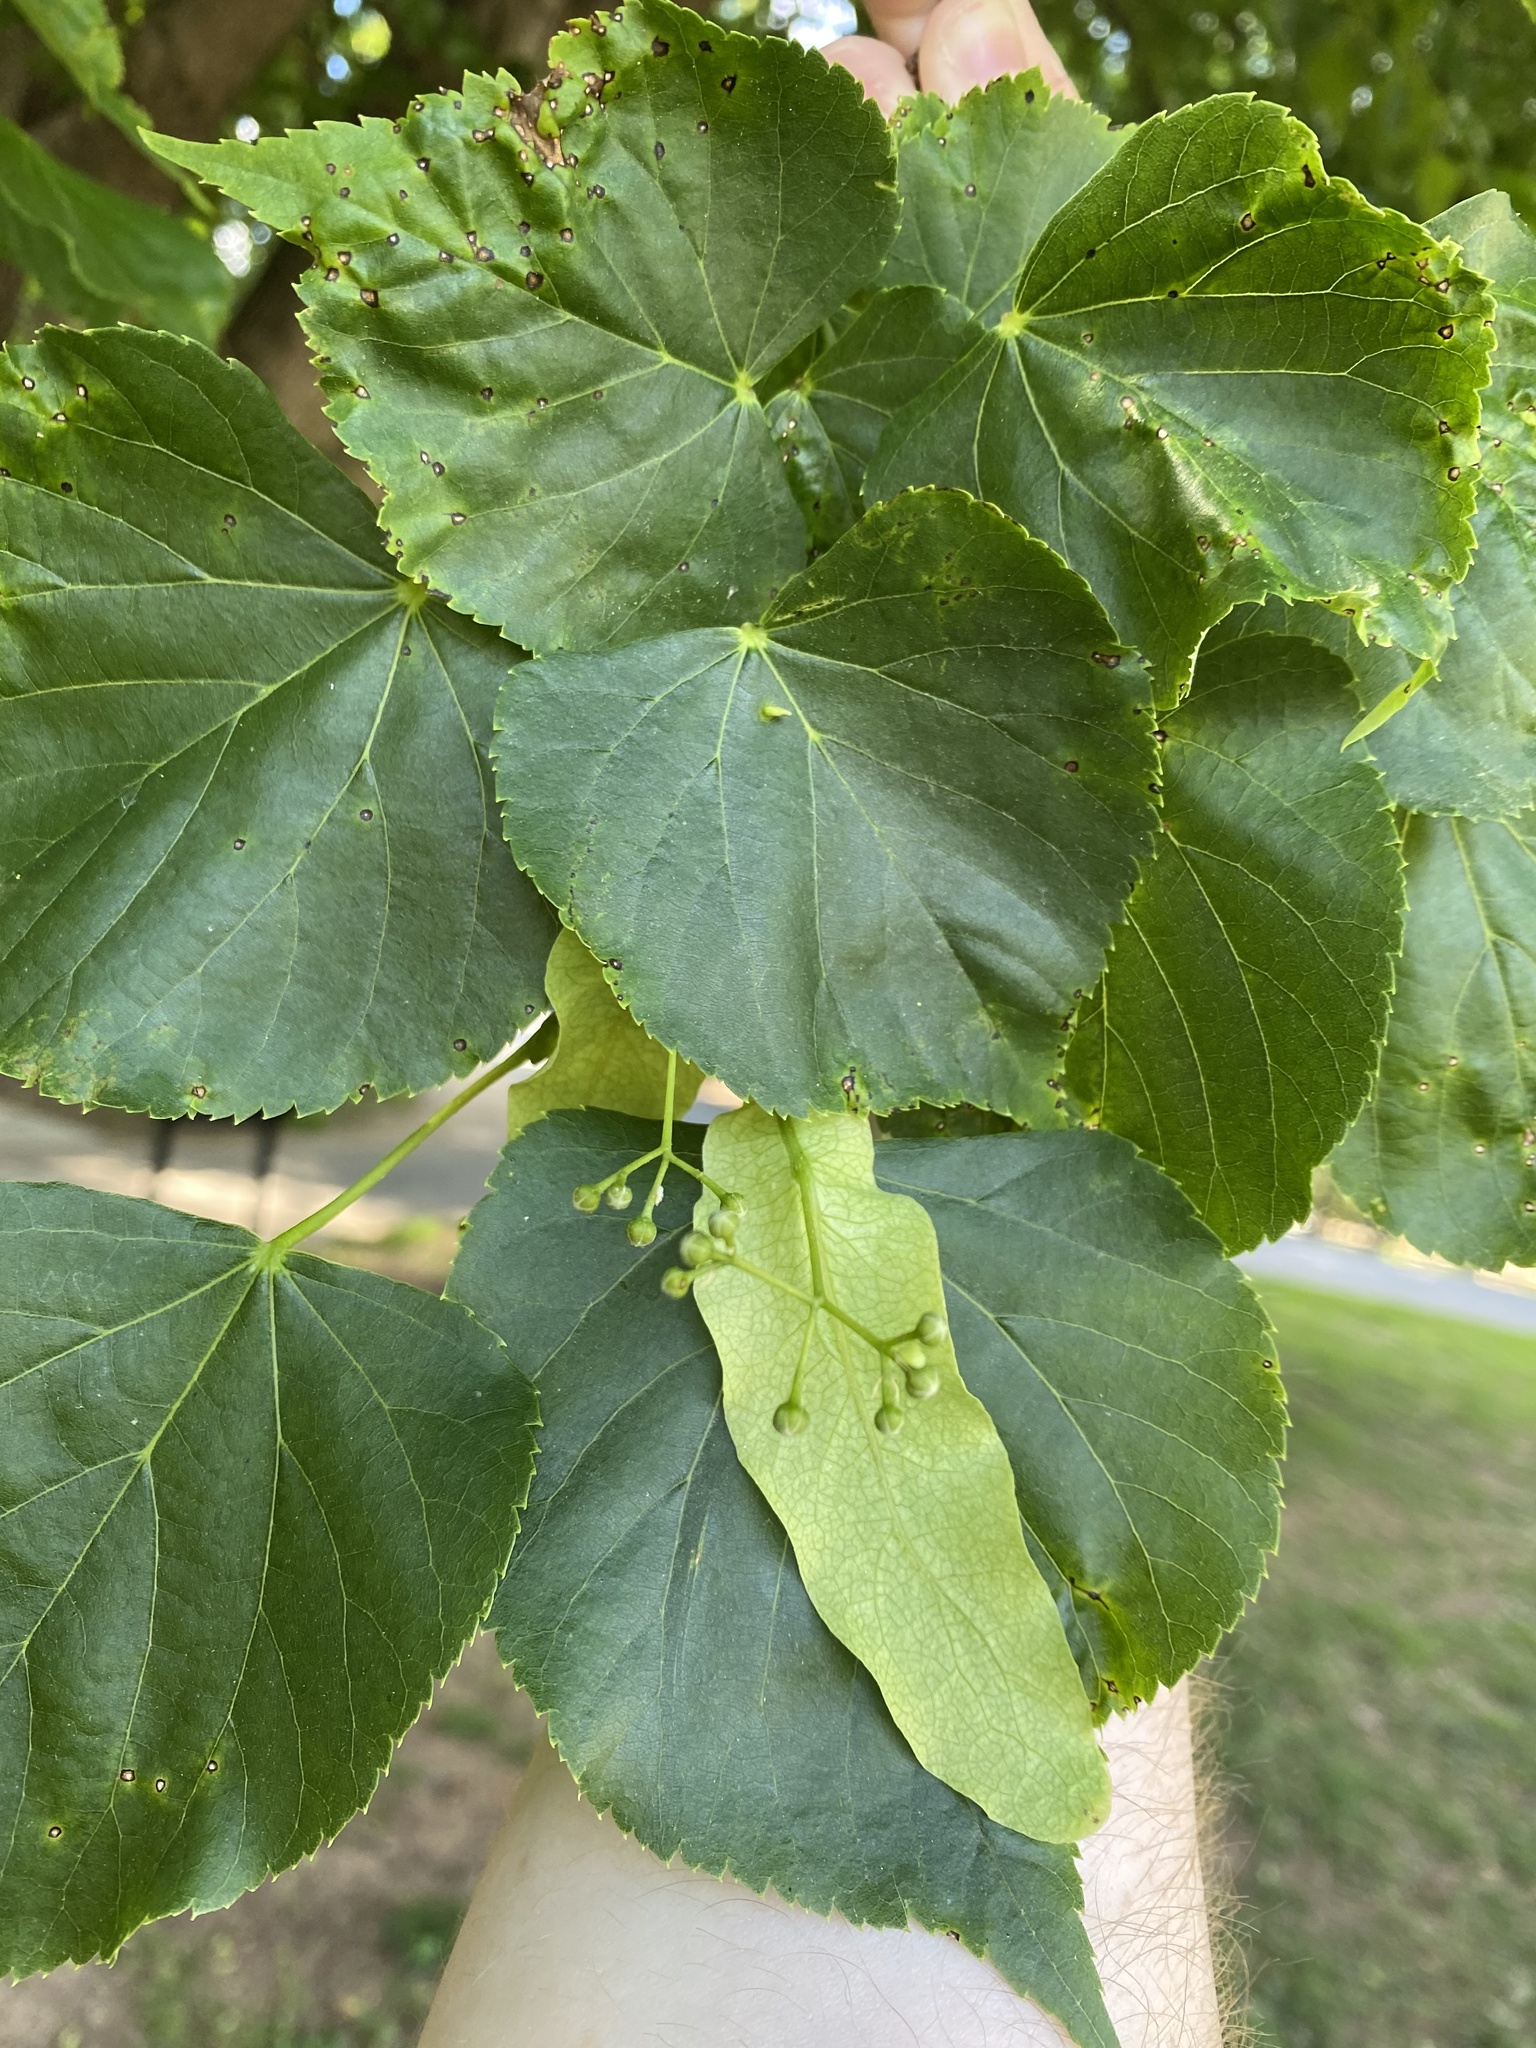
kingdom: Plantae
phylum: Tracheophyta
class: Magnoliopsida
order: Malvales
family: Malvaceae
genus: Tilia
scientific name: Tilia cordata
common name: Small-leaved lime
